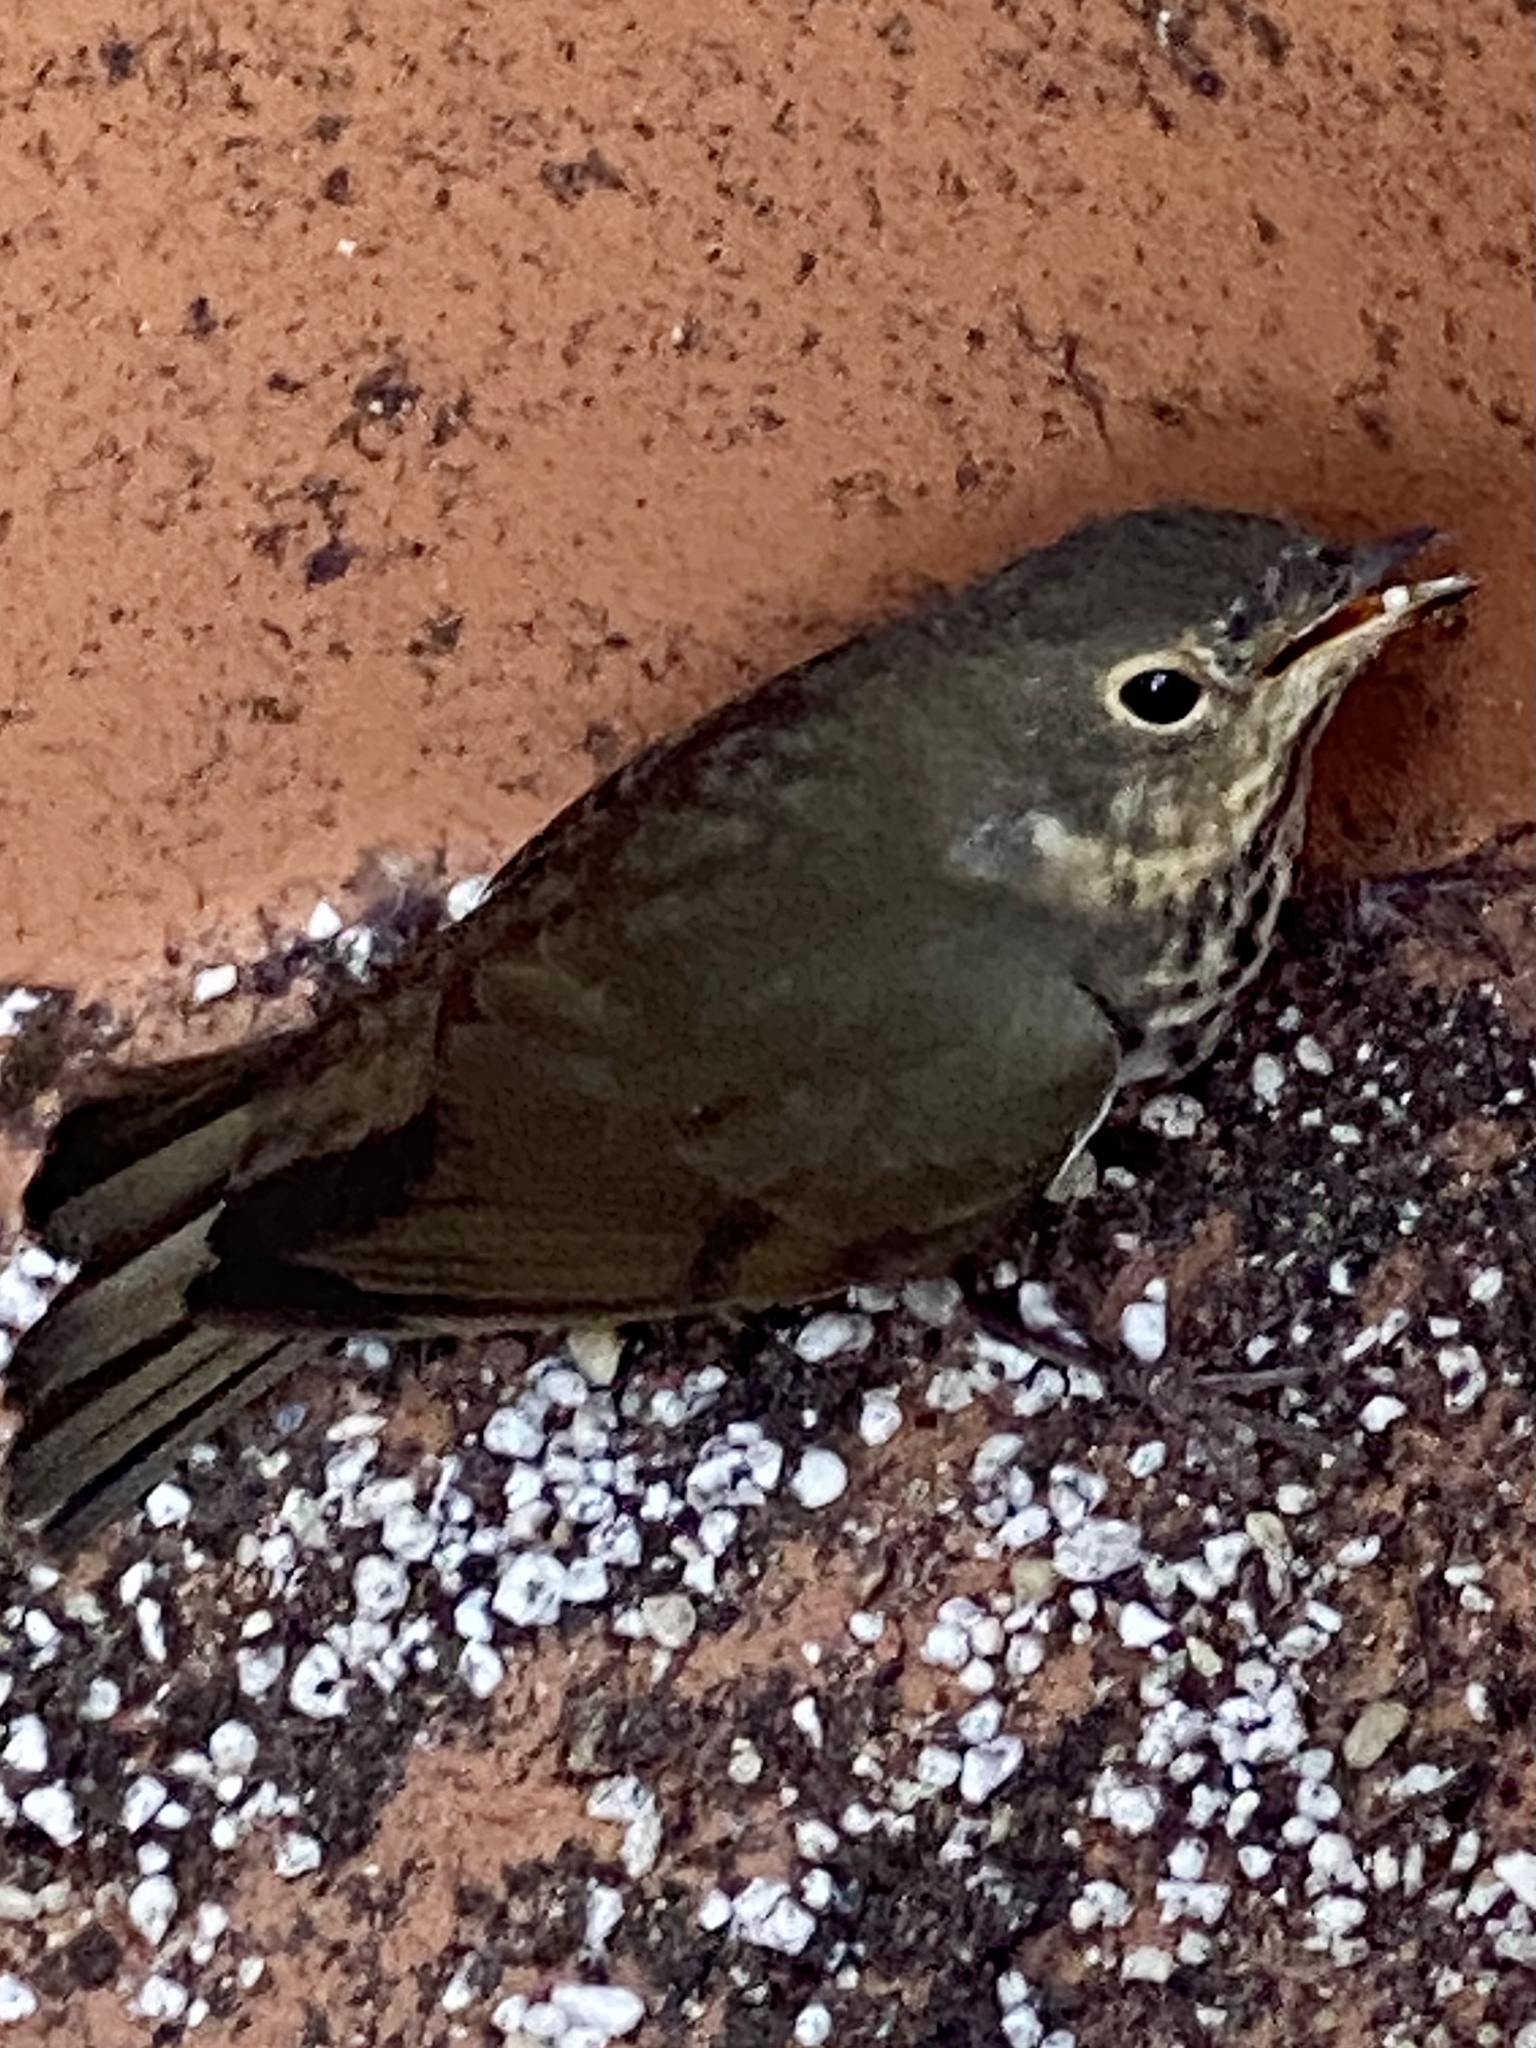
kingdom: Animalia
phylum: Chordata
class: Aves
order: Passeriformes
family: Turdidae
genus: Catharus
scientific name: Catharus ustulatus
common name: Swainson's thrush
